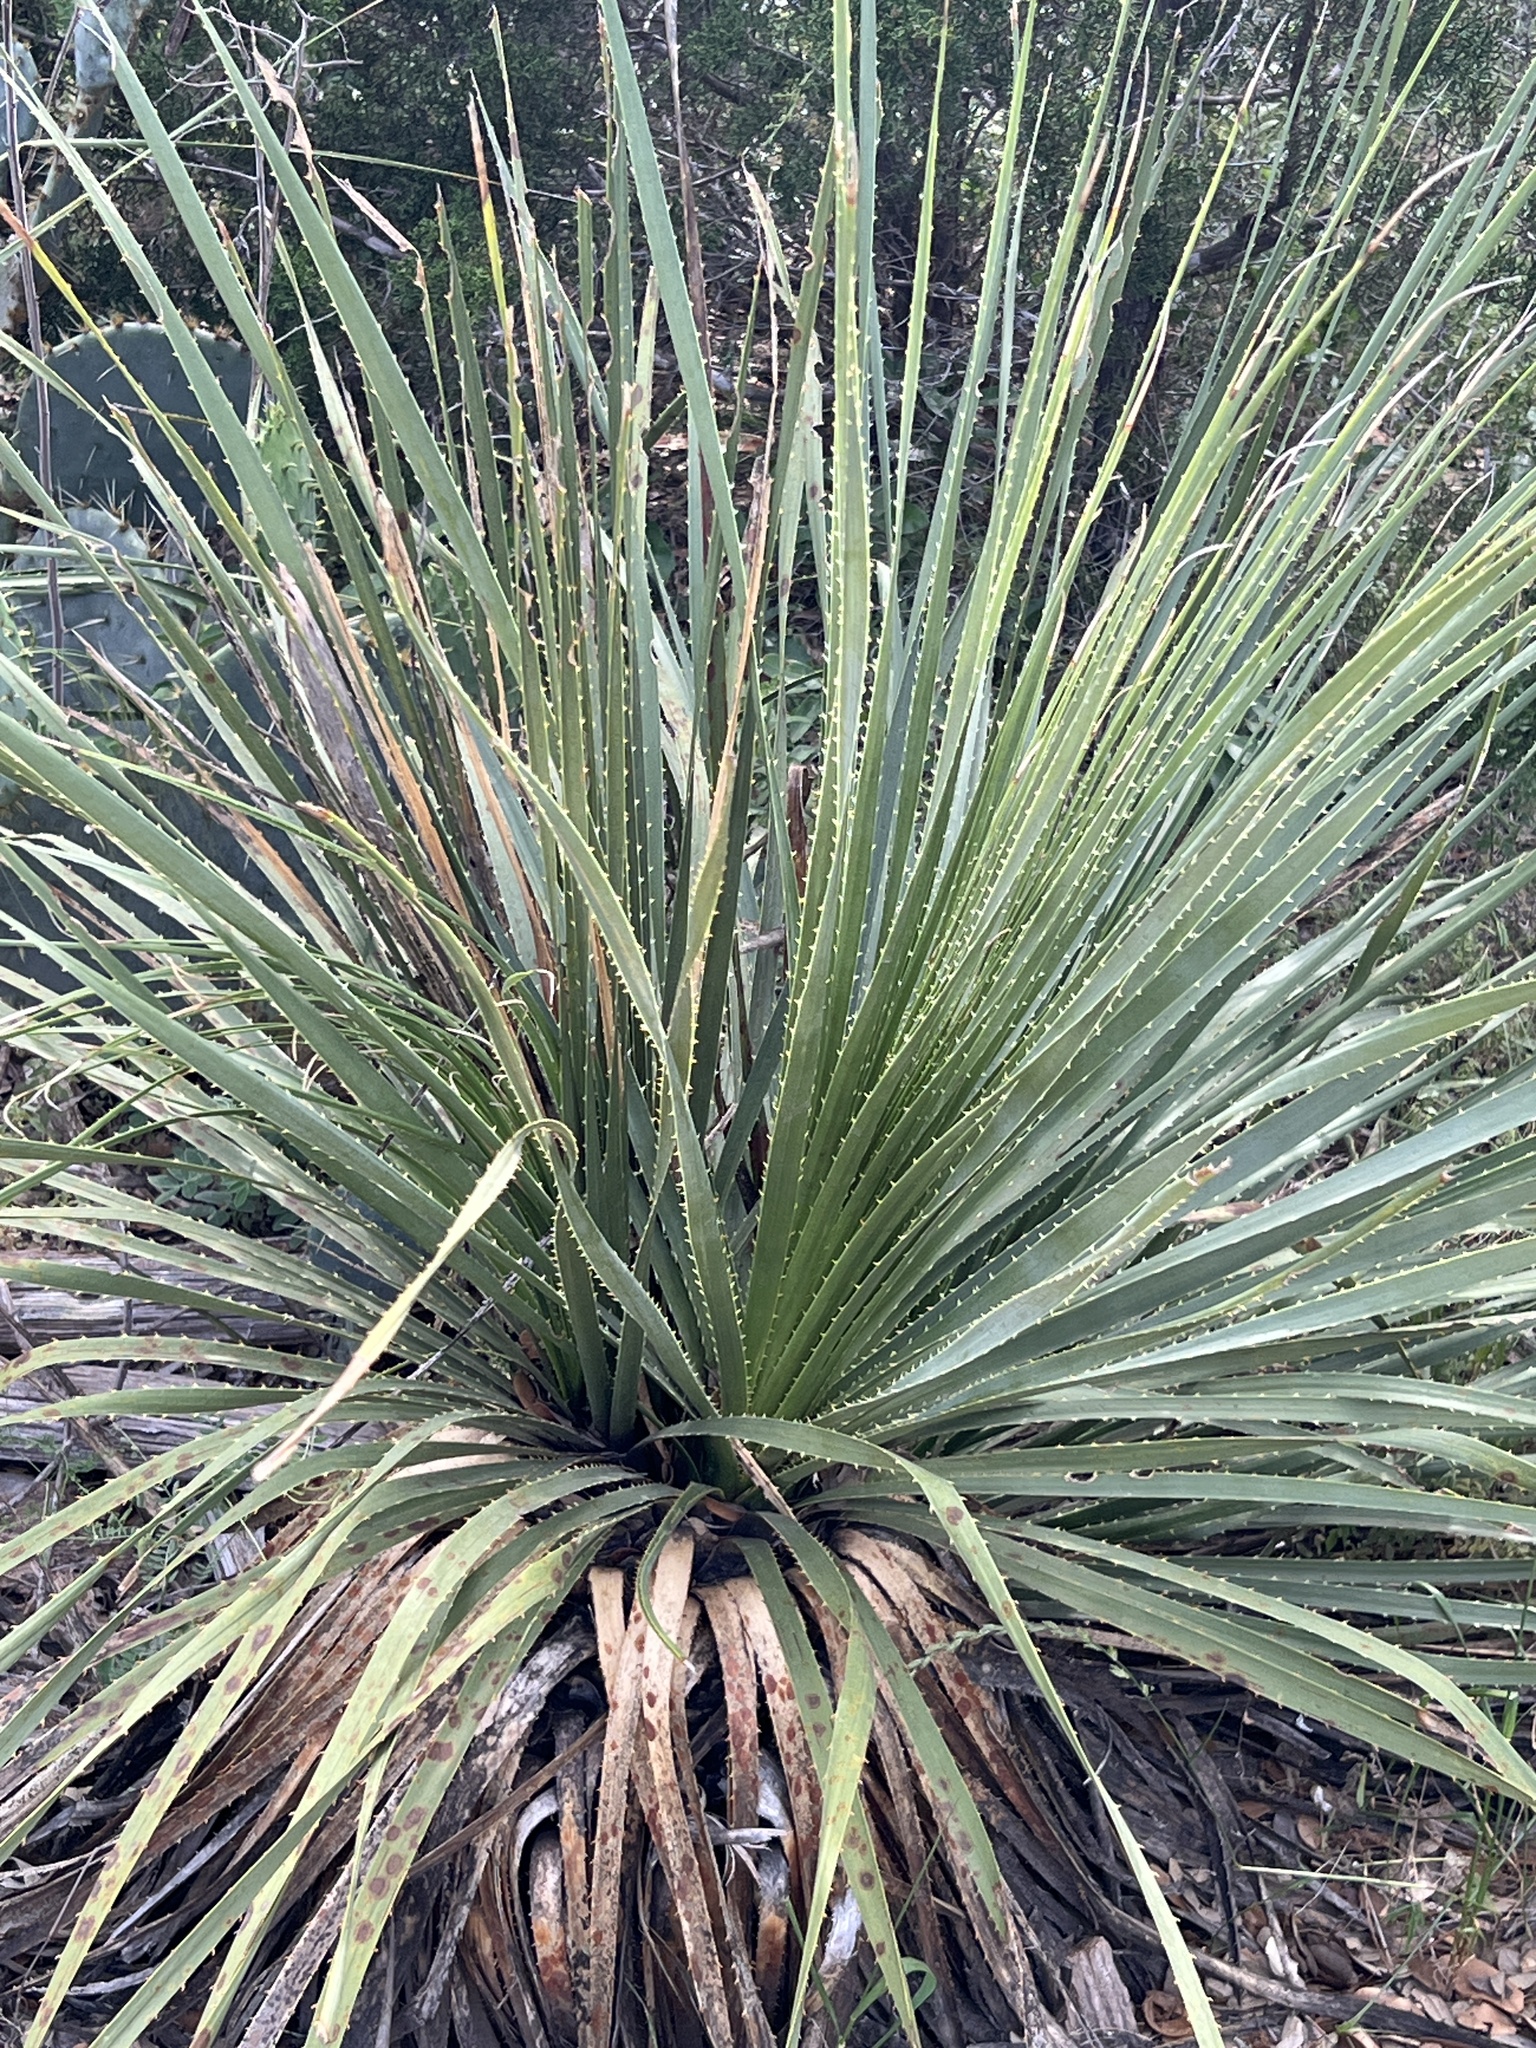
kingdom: Plantae
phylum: Tracheophyta
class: Liliopsida
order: Asparagales
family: Asparagaceae
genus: Dasylirion
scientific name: Dasylirion texanum
